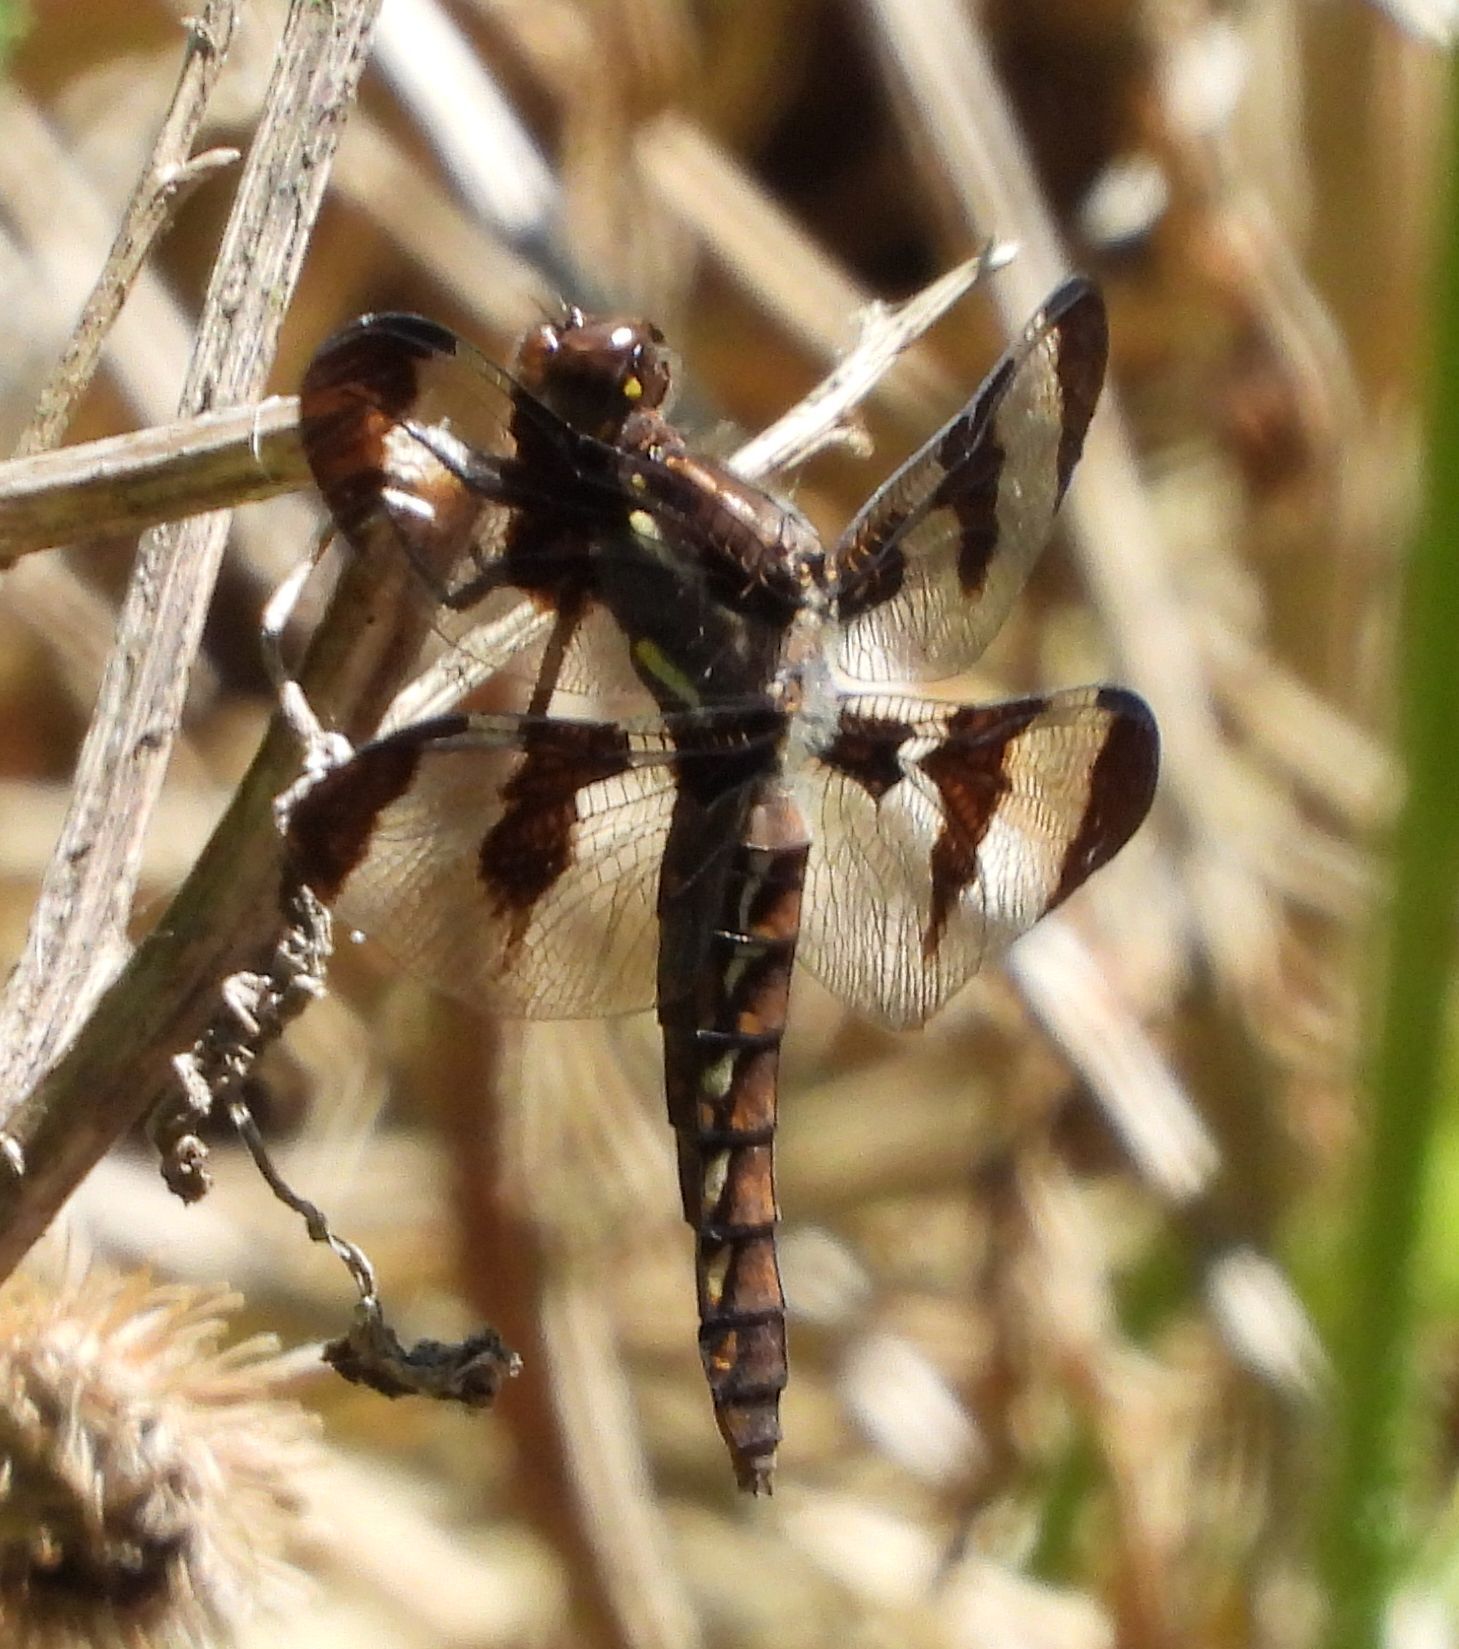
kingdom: Animalia
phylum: Arthropoda
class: Insecta
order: Odonata
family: Libellulidae
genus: Plathemis
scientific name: Plathemis lydia
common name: Common whitetail
